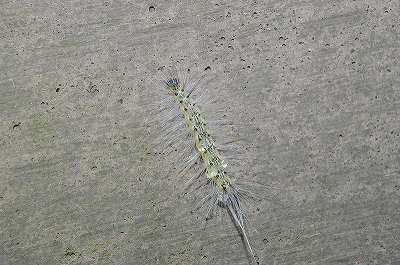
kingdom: Animalia
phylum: Arthropoda
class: Insecta
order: Lepidoptera
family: Erebidae
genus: Hyphantria
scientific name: Hyphantria cunea
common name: American white moth
